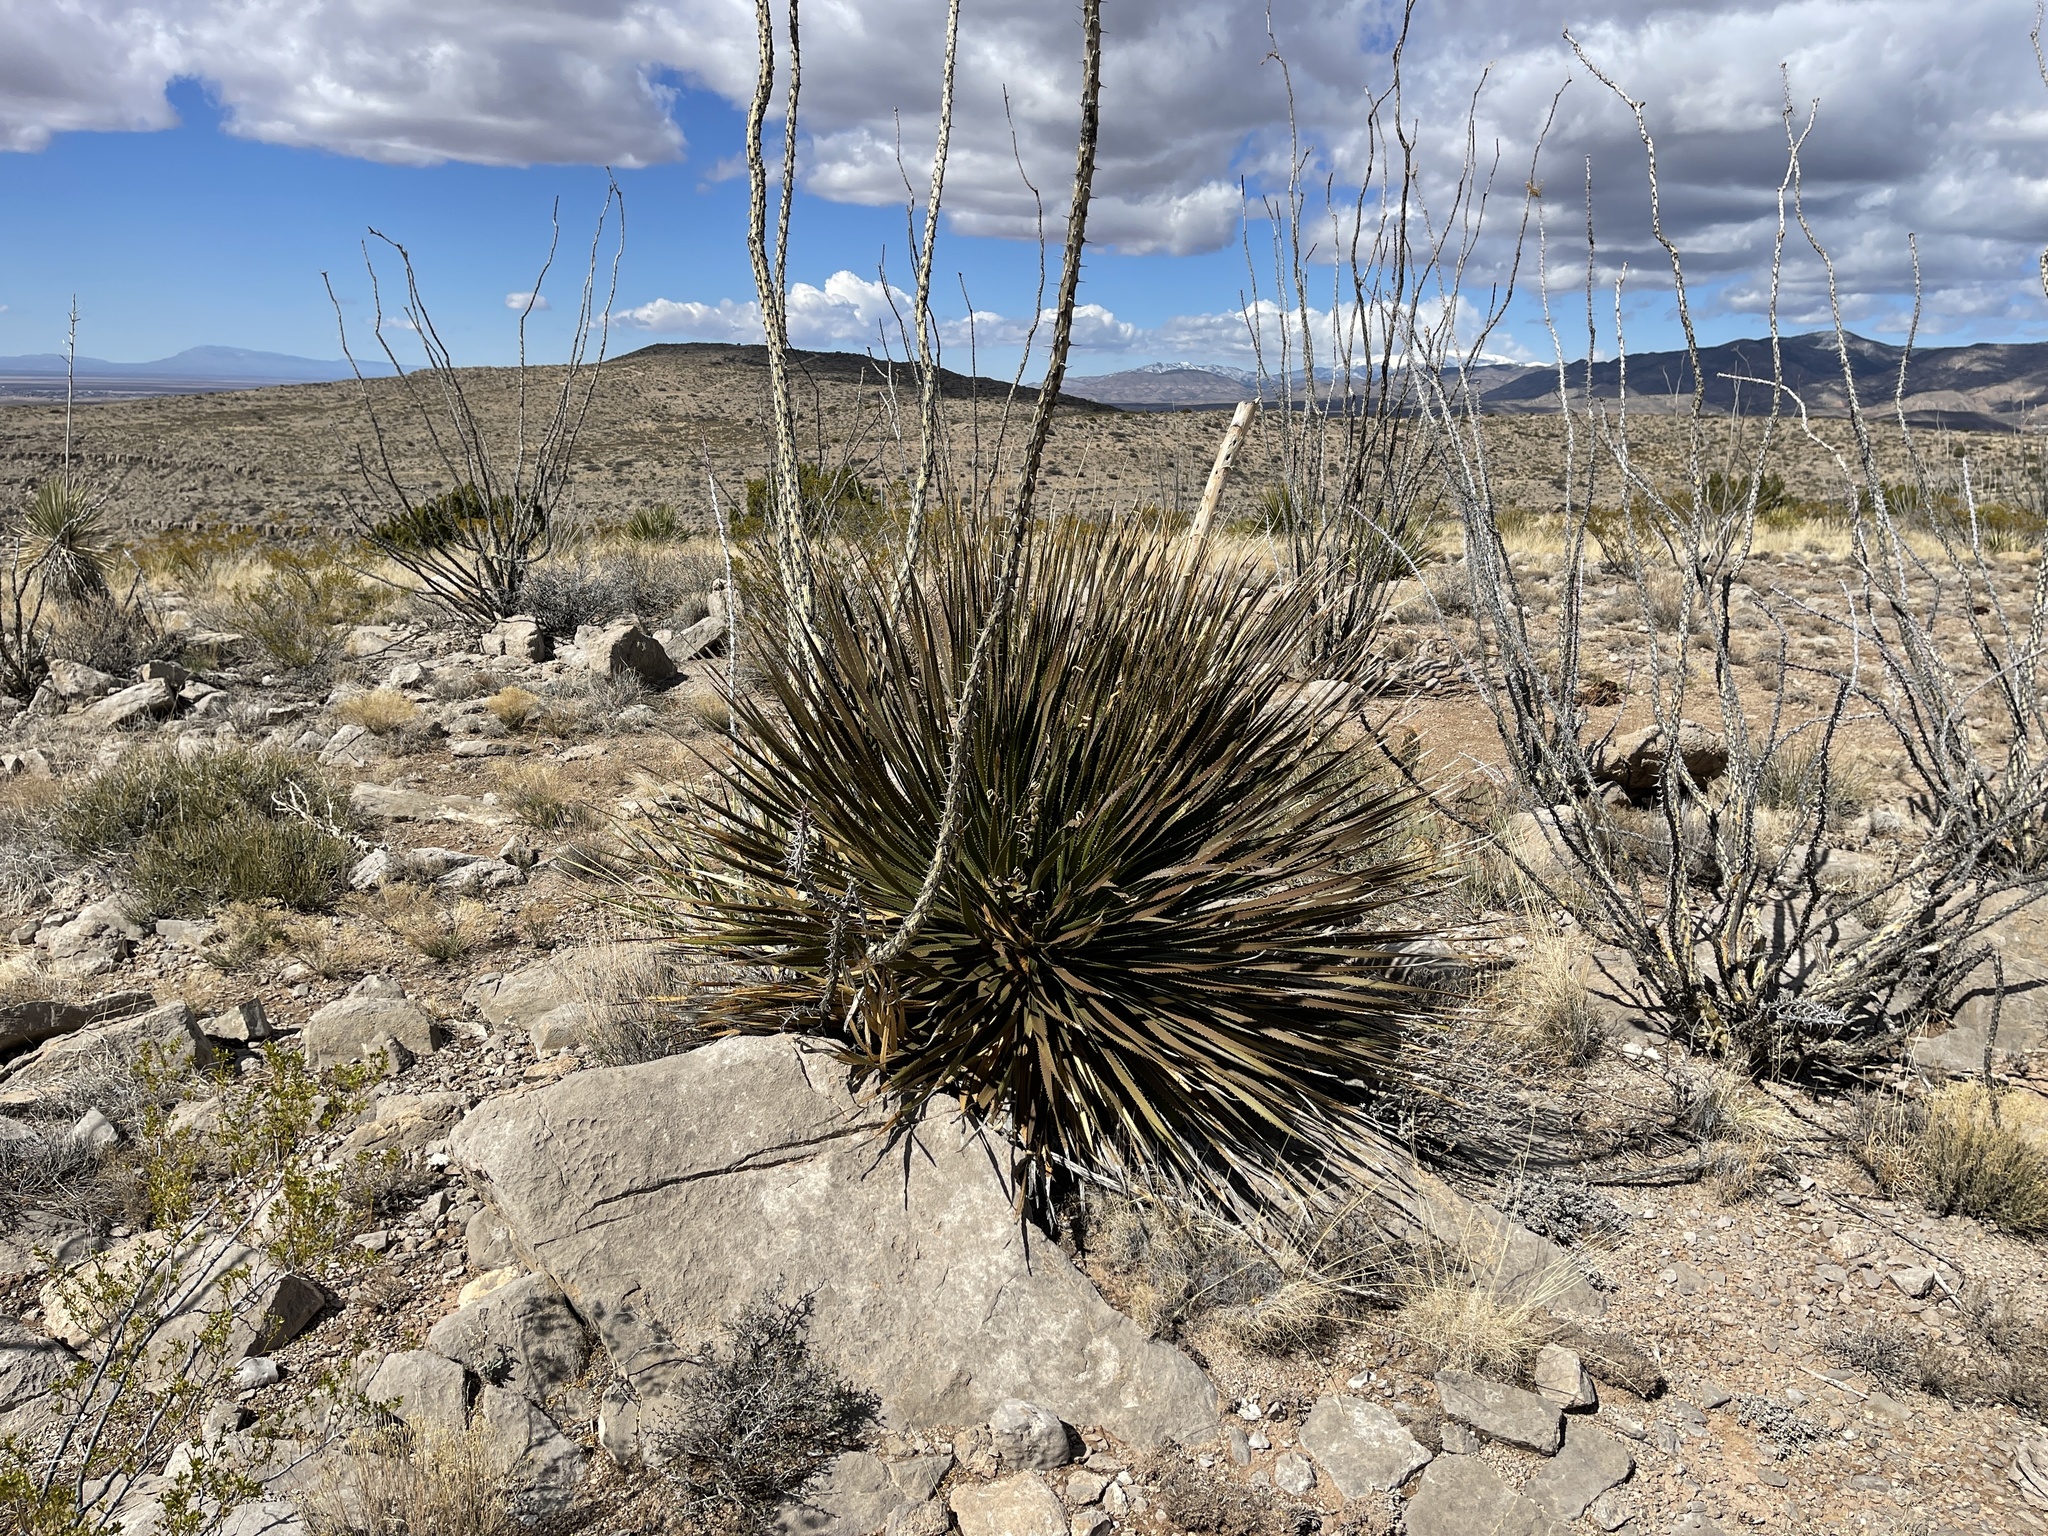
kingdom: Plantae
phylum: Tracheophyta
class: Liliopsida
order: Asparagales
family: Asparagaceae
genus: Dasylirion
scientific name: Dasylirion wheeleri
